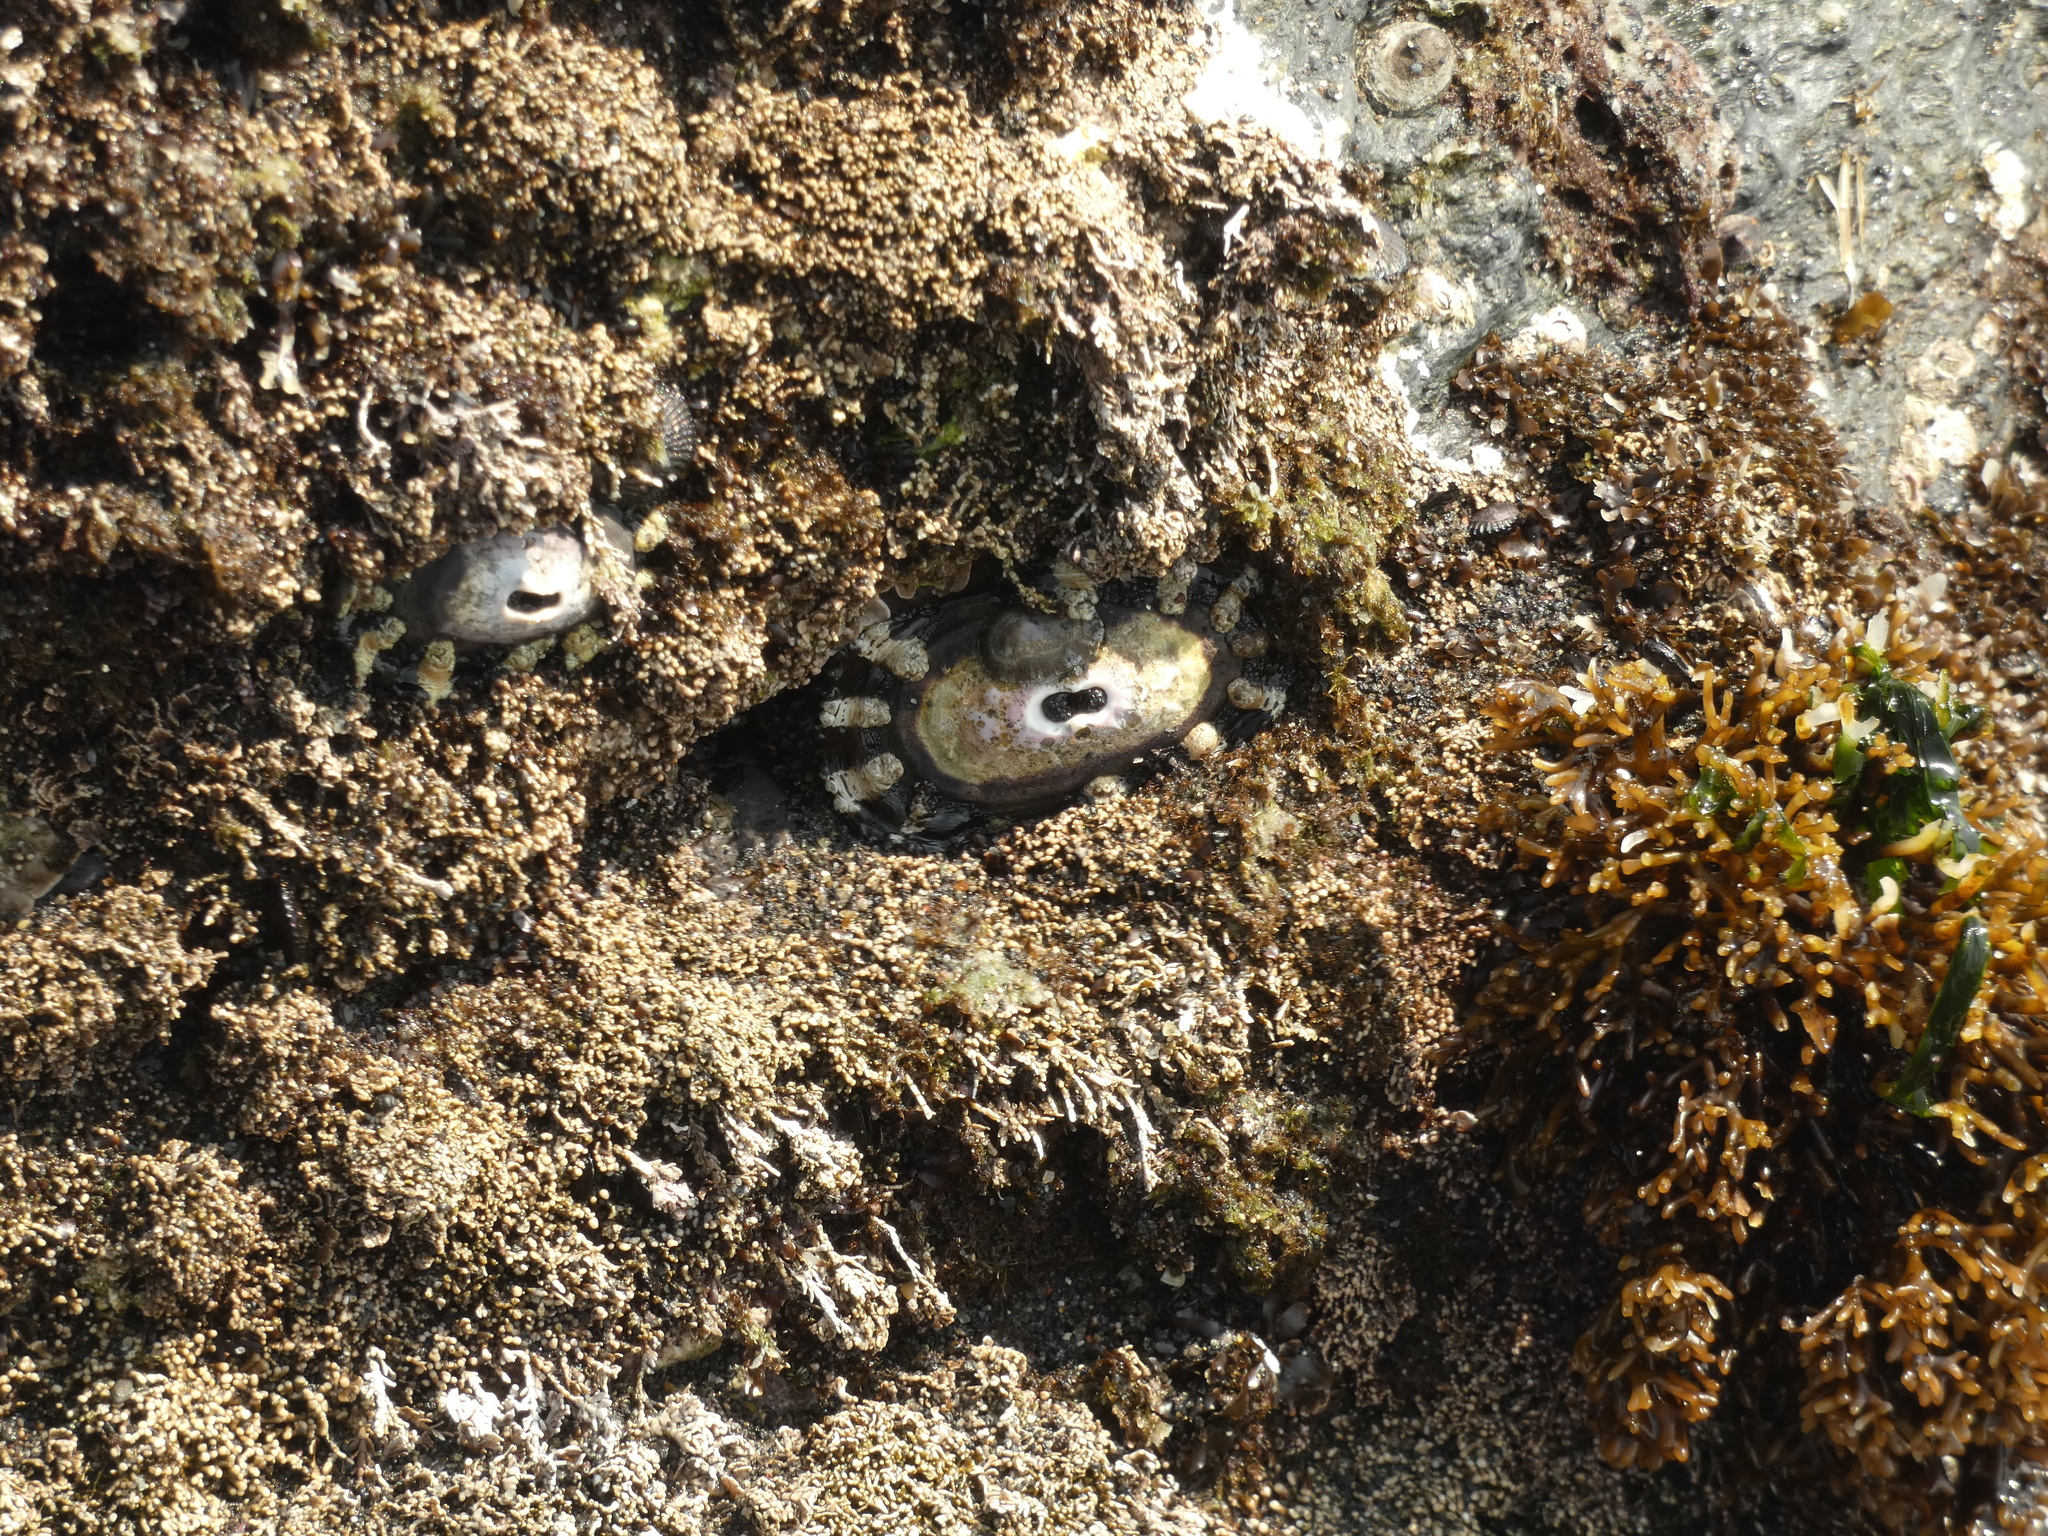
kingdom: Animalia
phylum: Mollusca
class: Gastropoda
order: Lepetellida
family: Fissurellidae
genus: Fissurella
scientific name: Fissurella crassa
